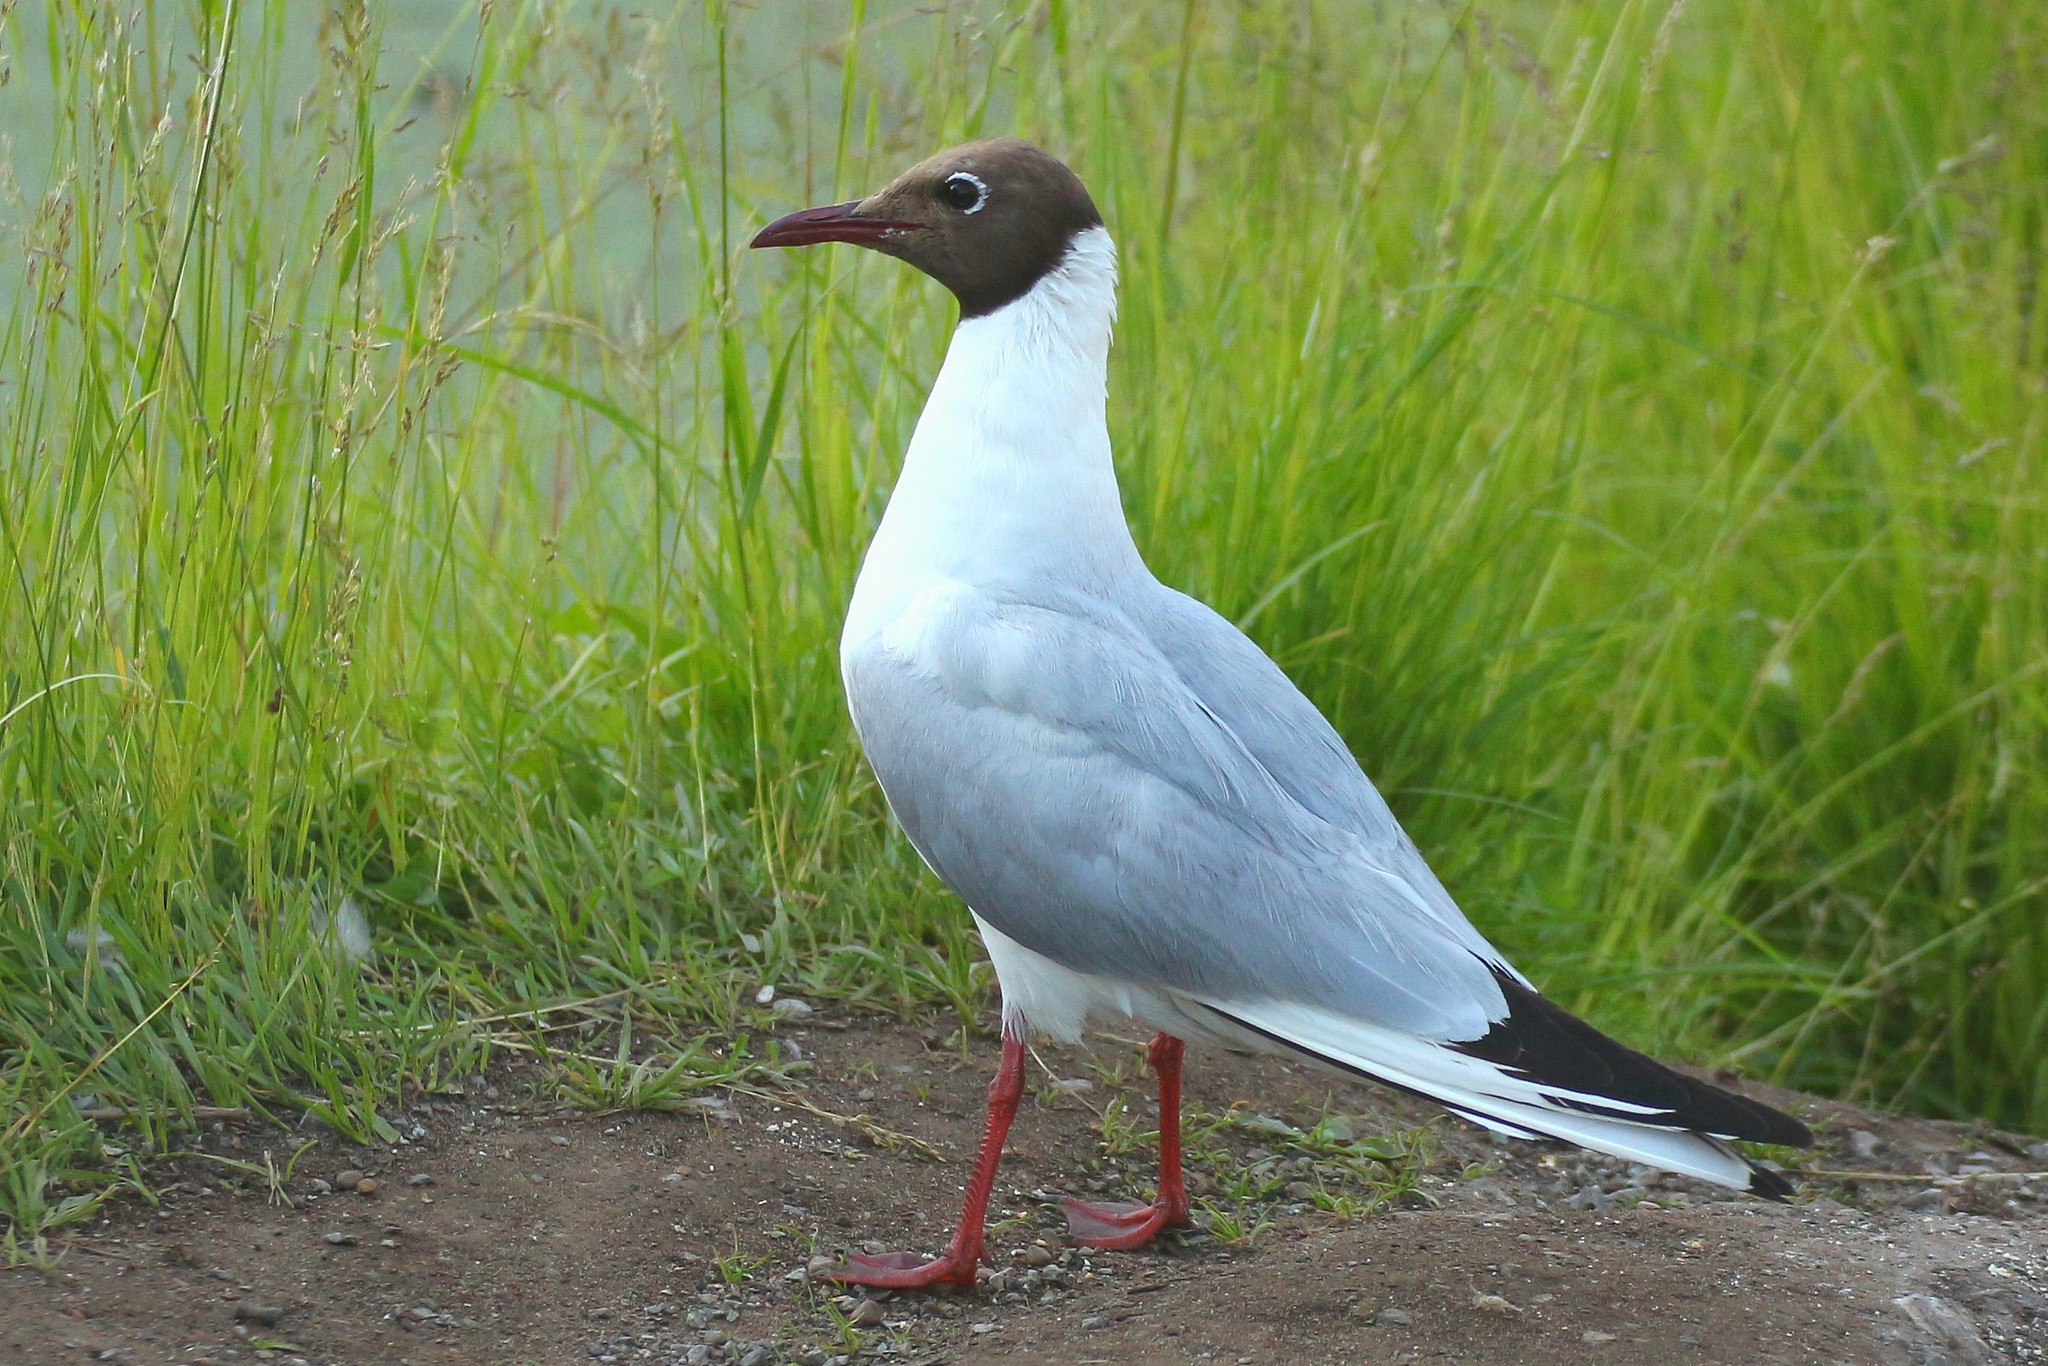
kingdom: Animalia
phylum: Chordata
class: Aves
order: Charadriiformes
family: Laridae
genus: Chroicocephalus
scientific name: Chroicocephalus ridibundus
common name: Black-headed gull
